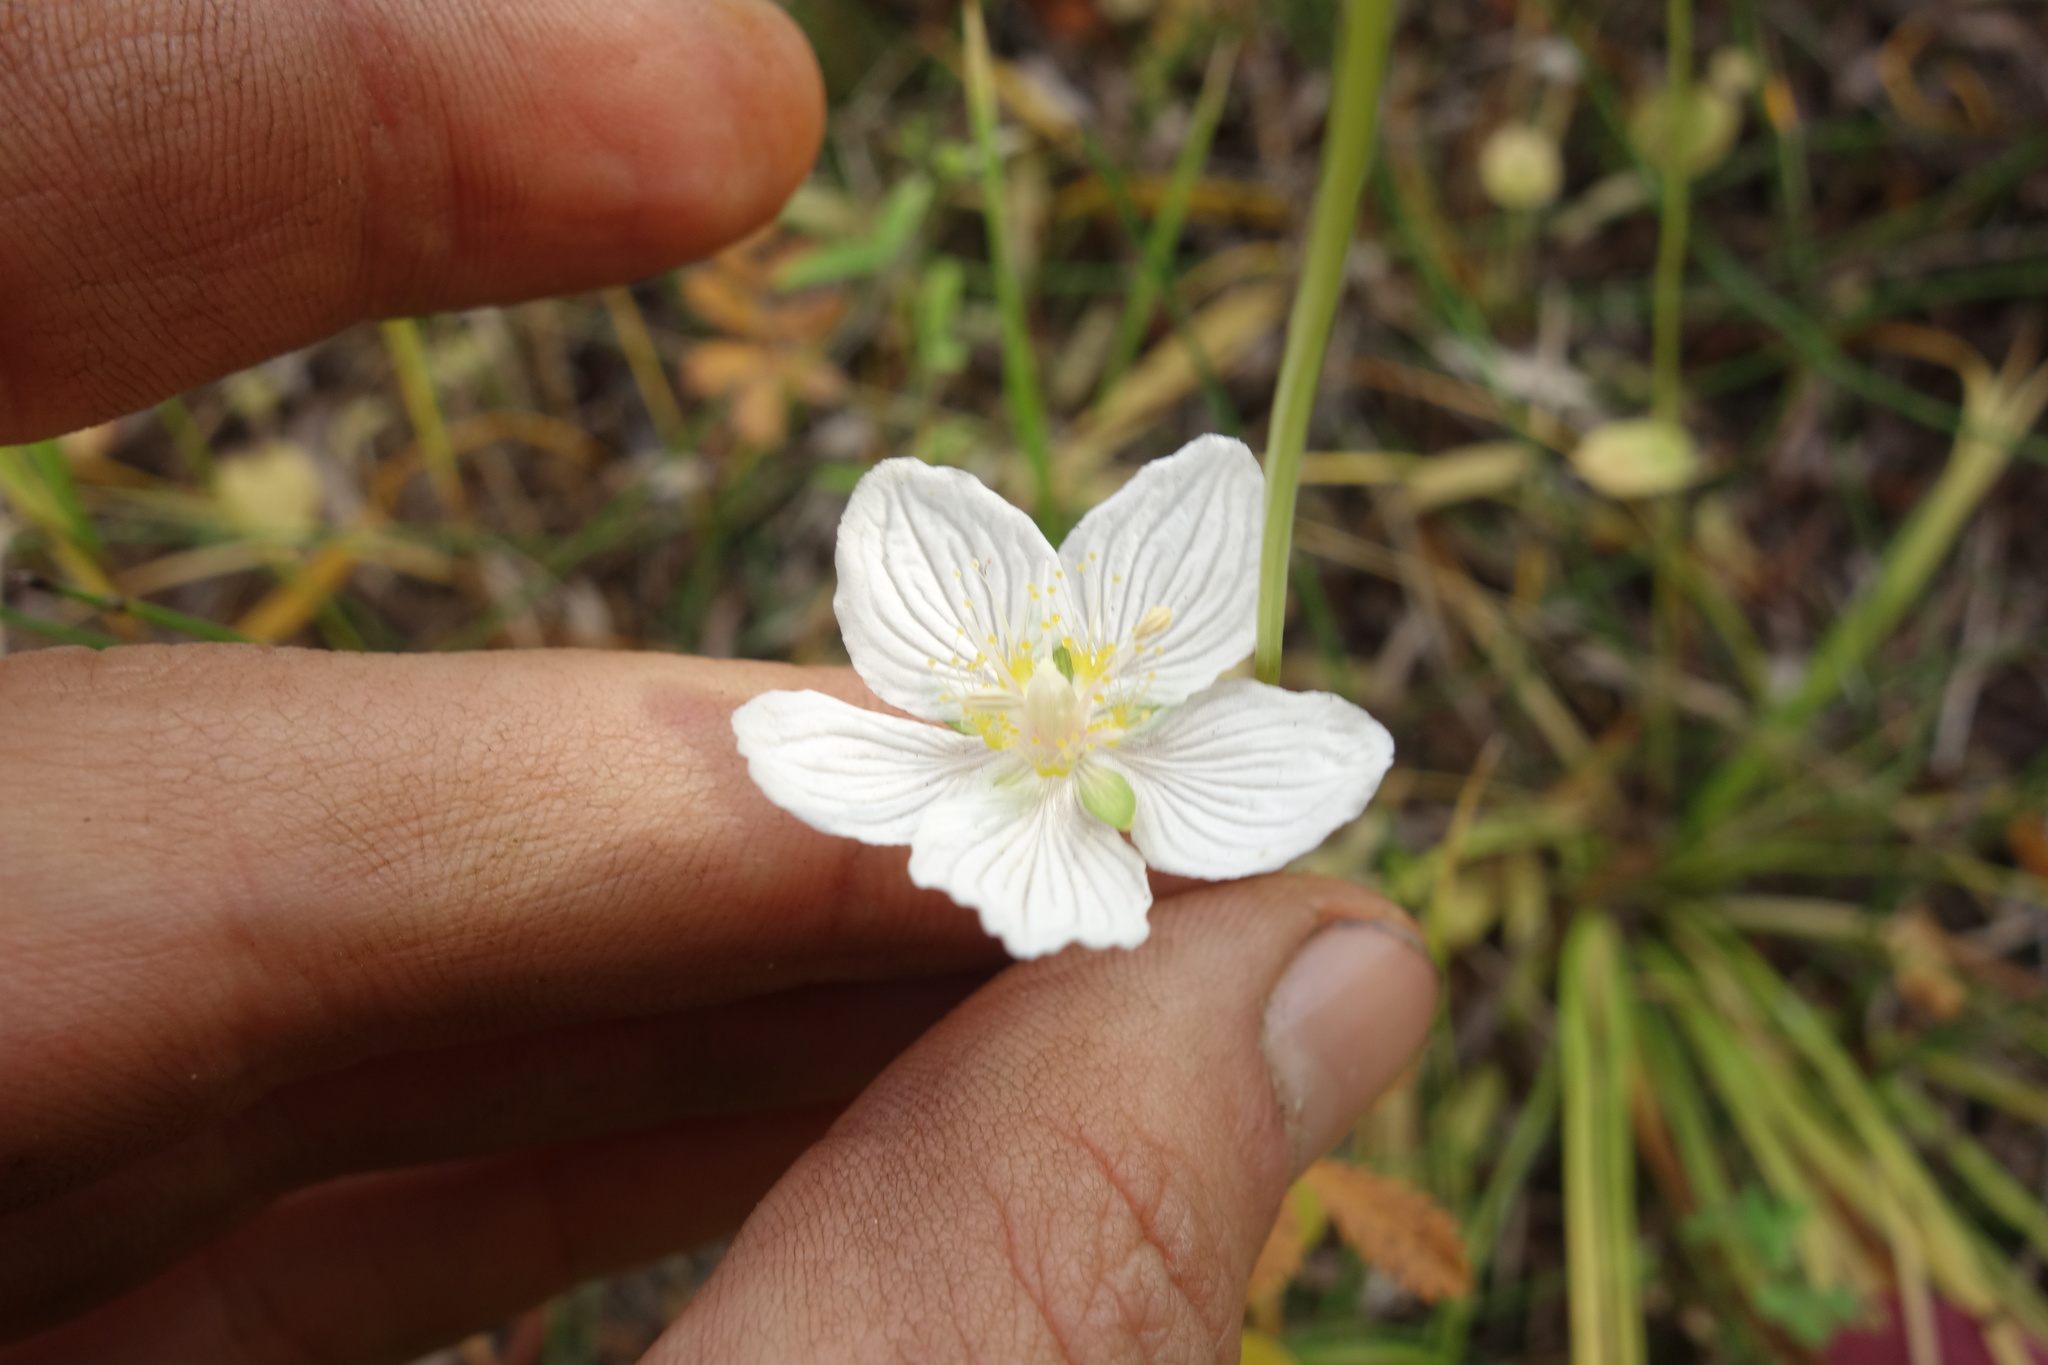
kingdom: Plantae
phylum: Tracheophyta
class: Magnoliopsida
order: Celastrales
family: Parnassiaceae
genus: Parnassia
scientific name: Parnassia palustris
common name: Grass-of-parnassus
